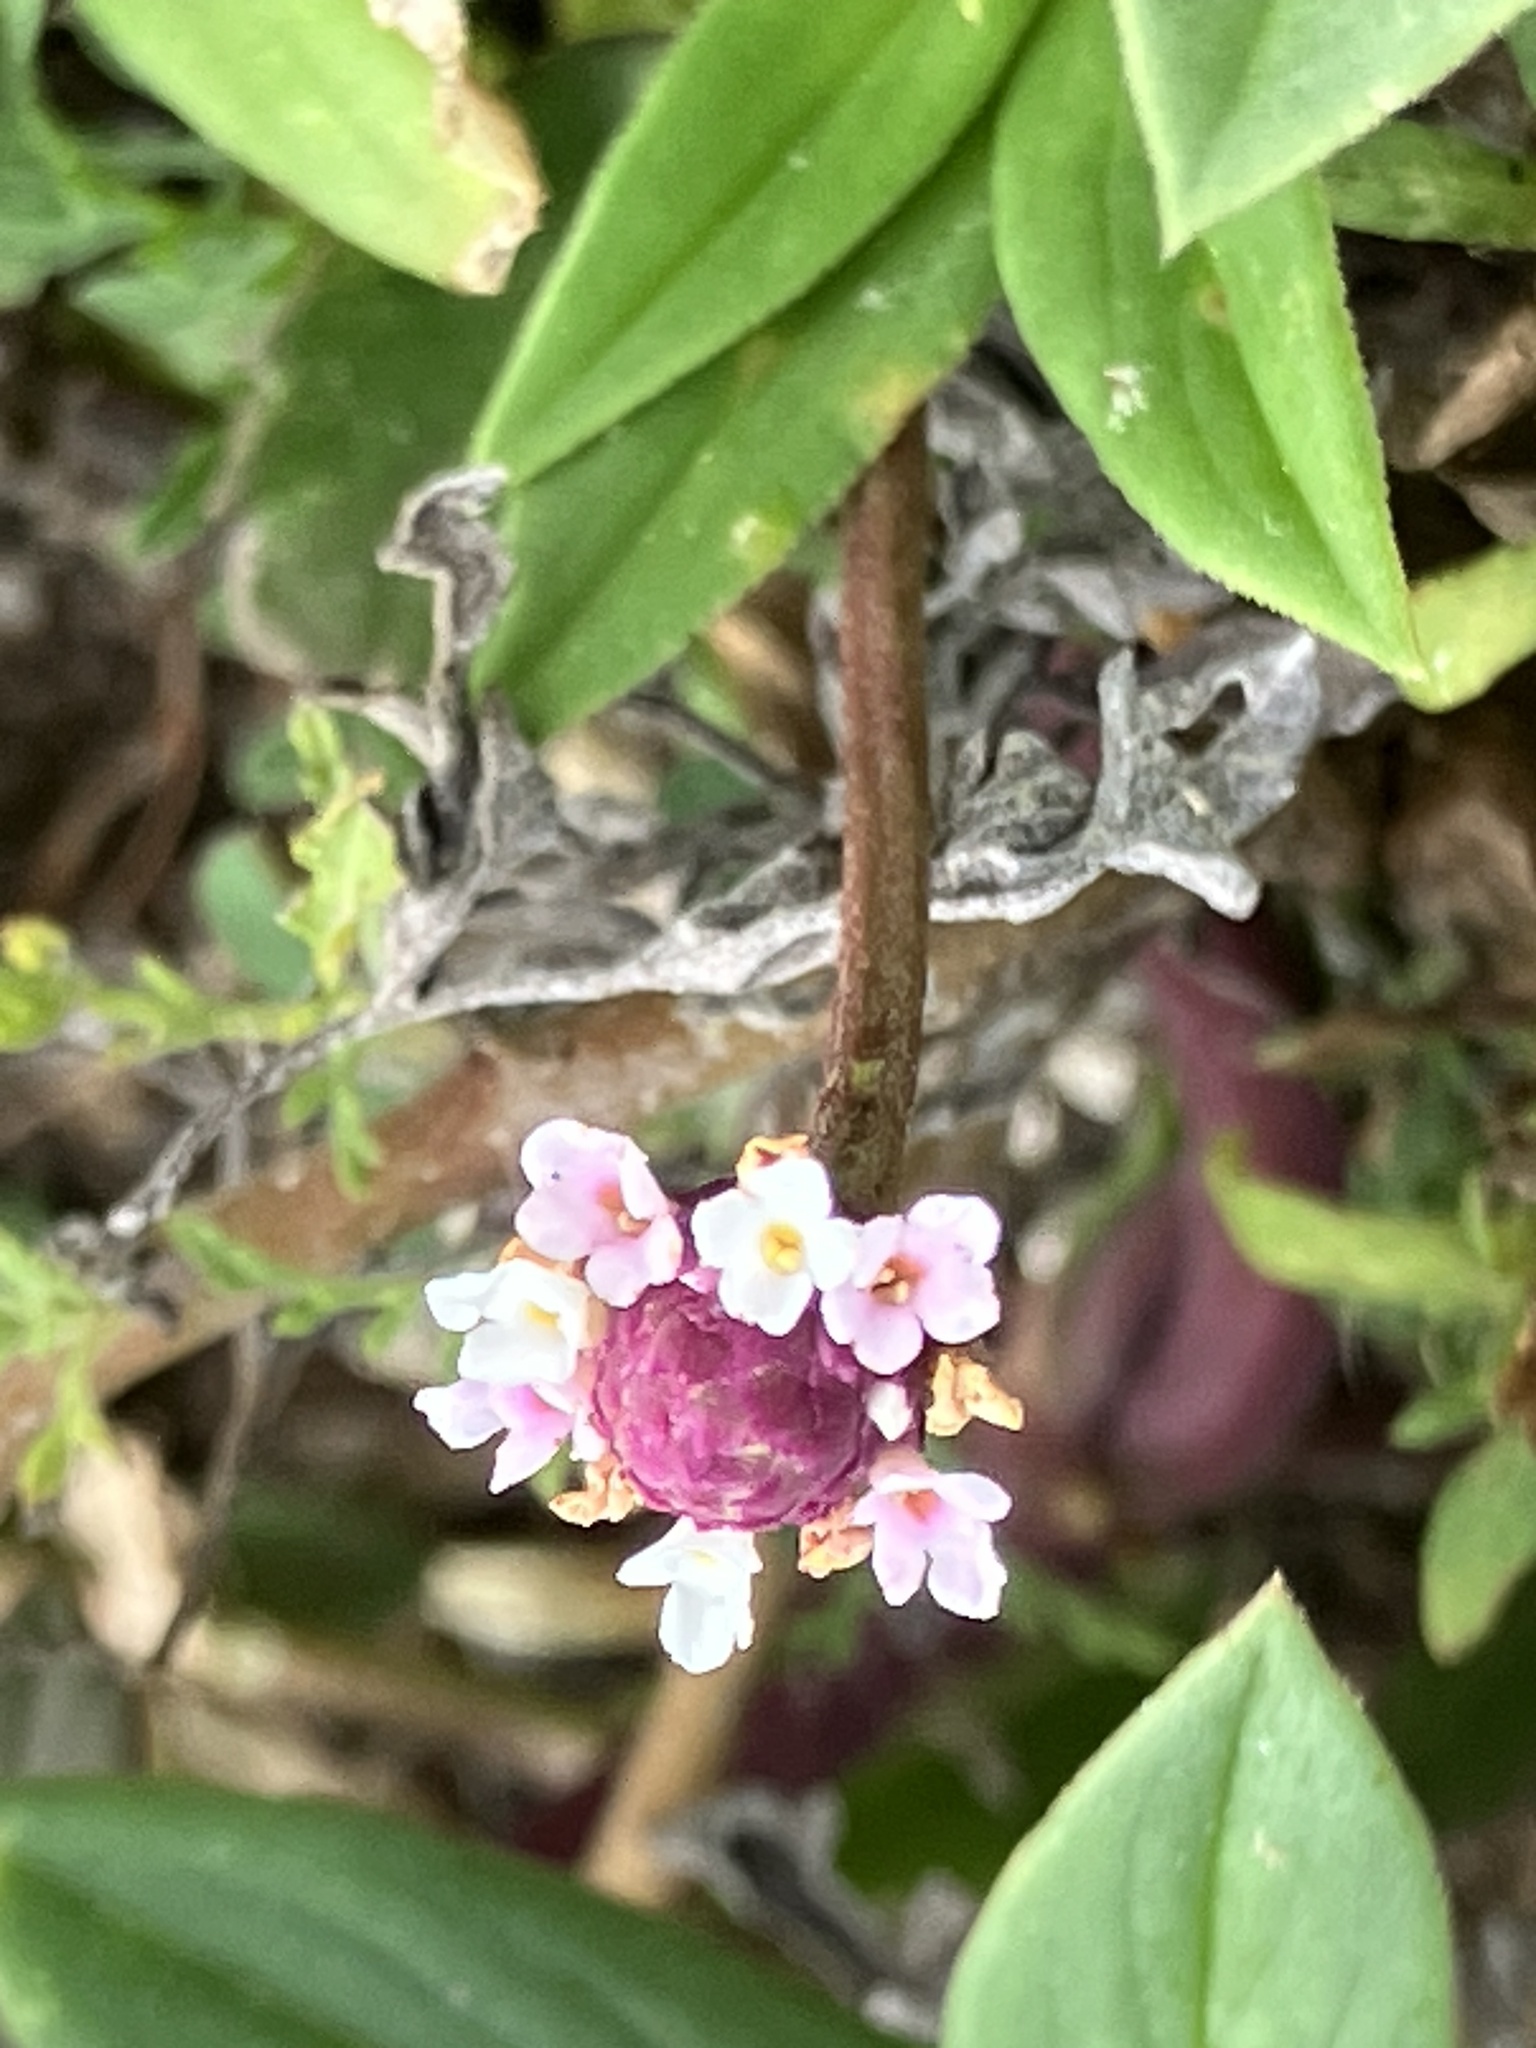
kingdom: Plantae
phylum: Tracheophyta
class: Magnoliopsida
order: Lamiales
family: Verbenaceae
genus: Phyla
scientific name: Phyla nodiflora
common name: Frogfruit
